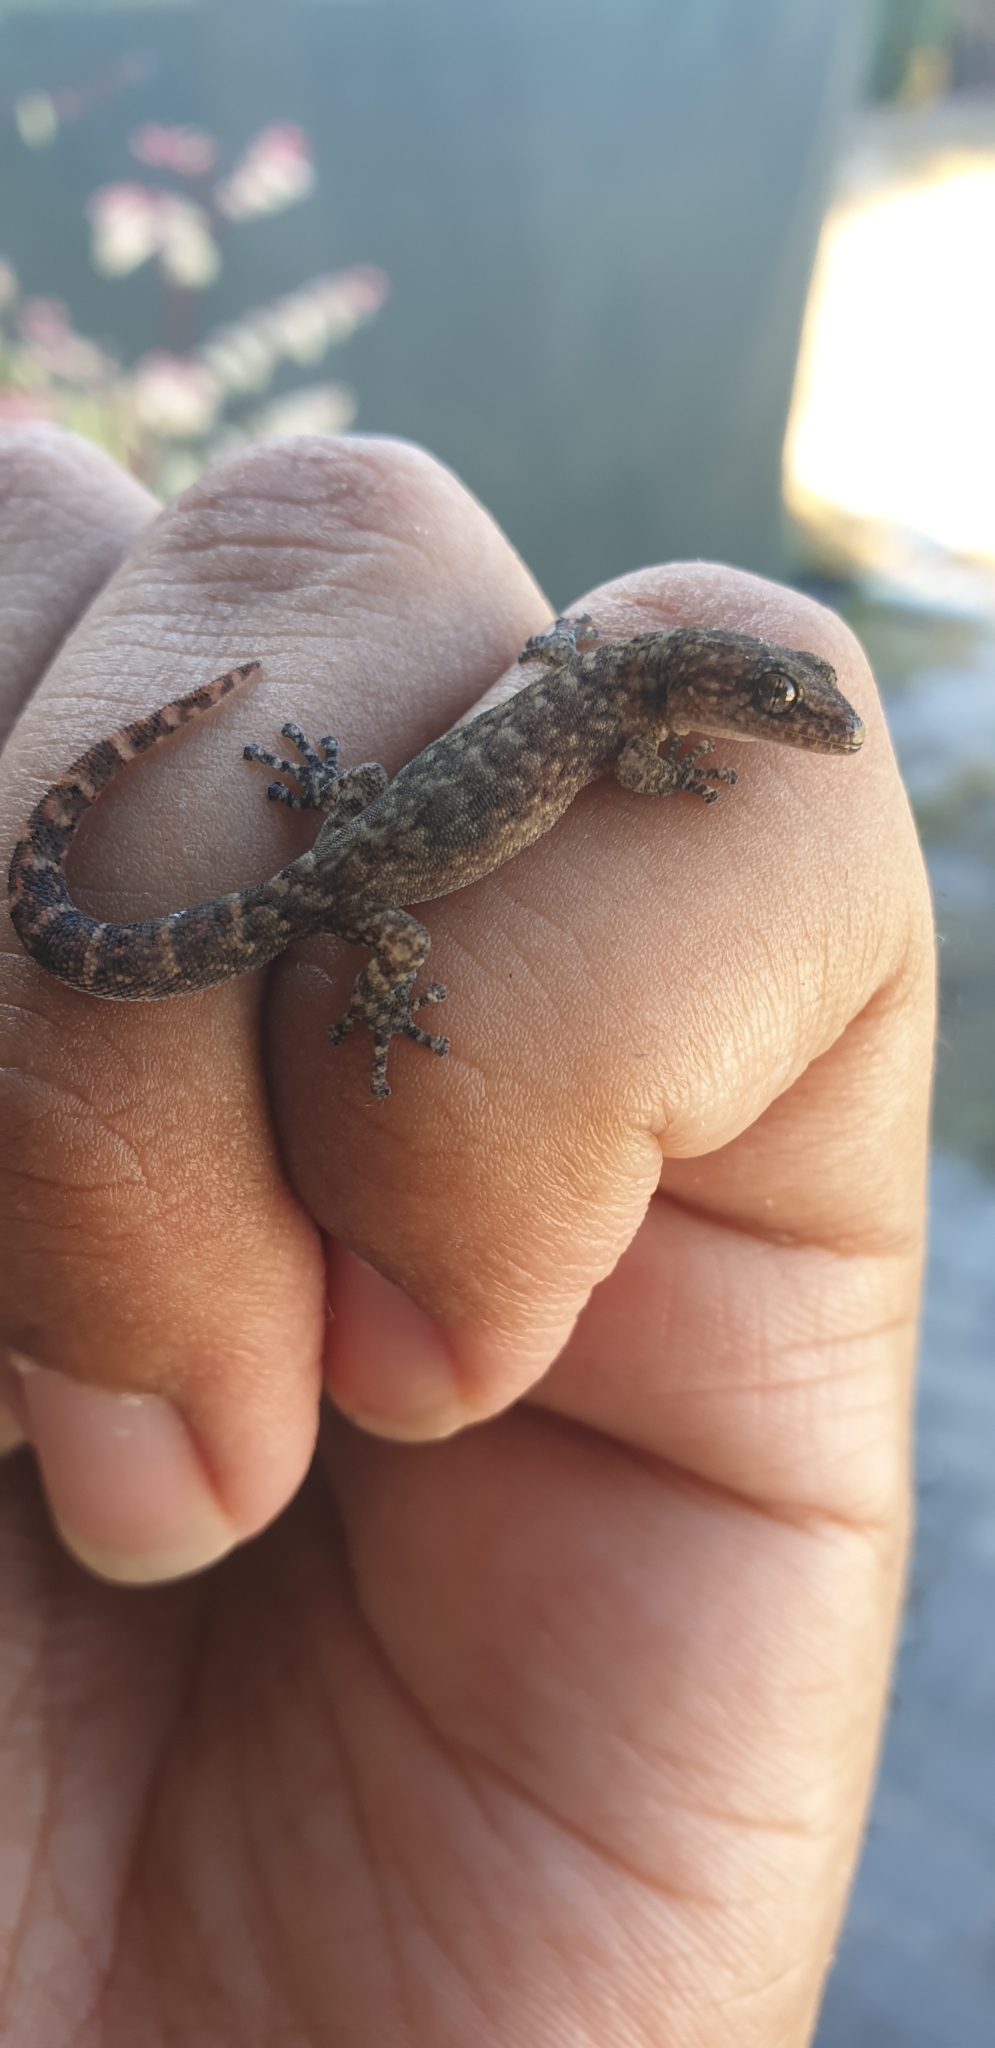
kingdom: Animalia
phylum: Chordata
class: Squamata
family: Gekkonidae
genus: Afrogecko
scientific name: Afrogecko porphyreus
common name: Marbled leaf-toed gecko
